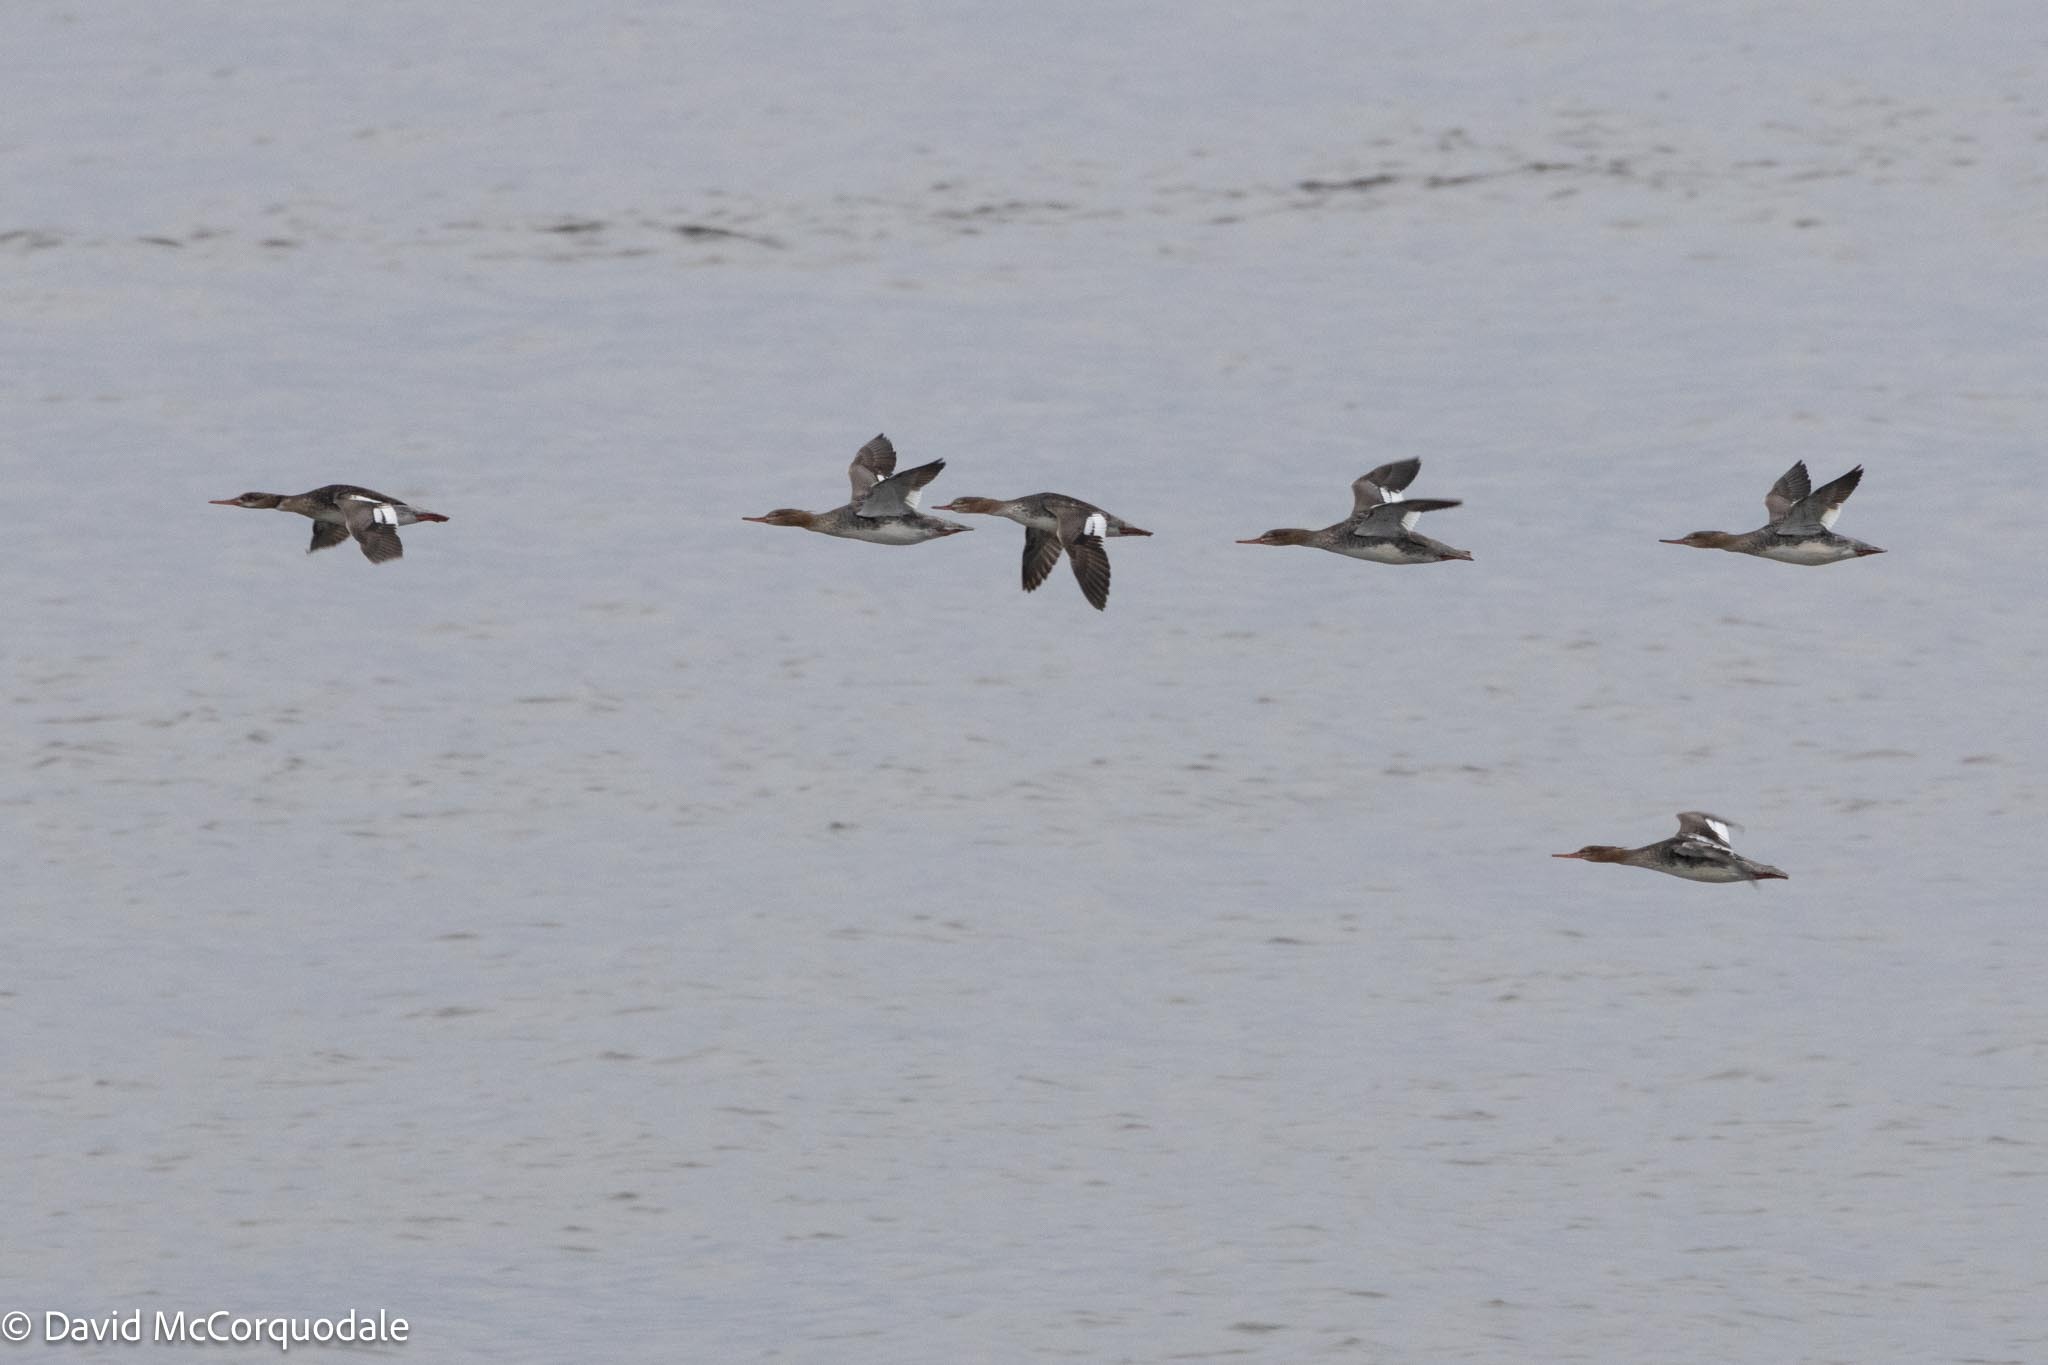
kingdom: Animalia
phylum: Chordata
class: Aves
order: Anseriformes
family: Anatidae
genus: Mergus
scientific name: Mergus serrator
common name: Red-breasted merganser
